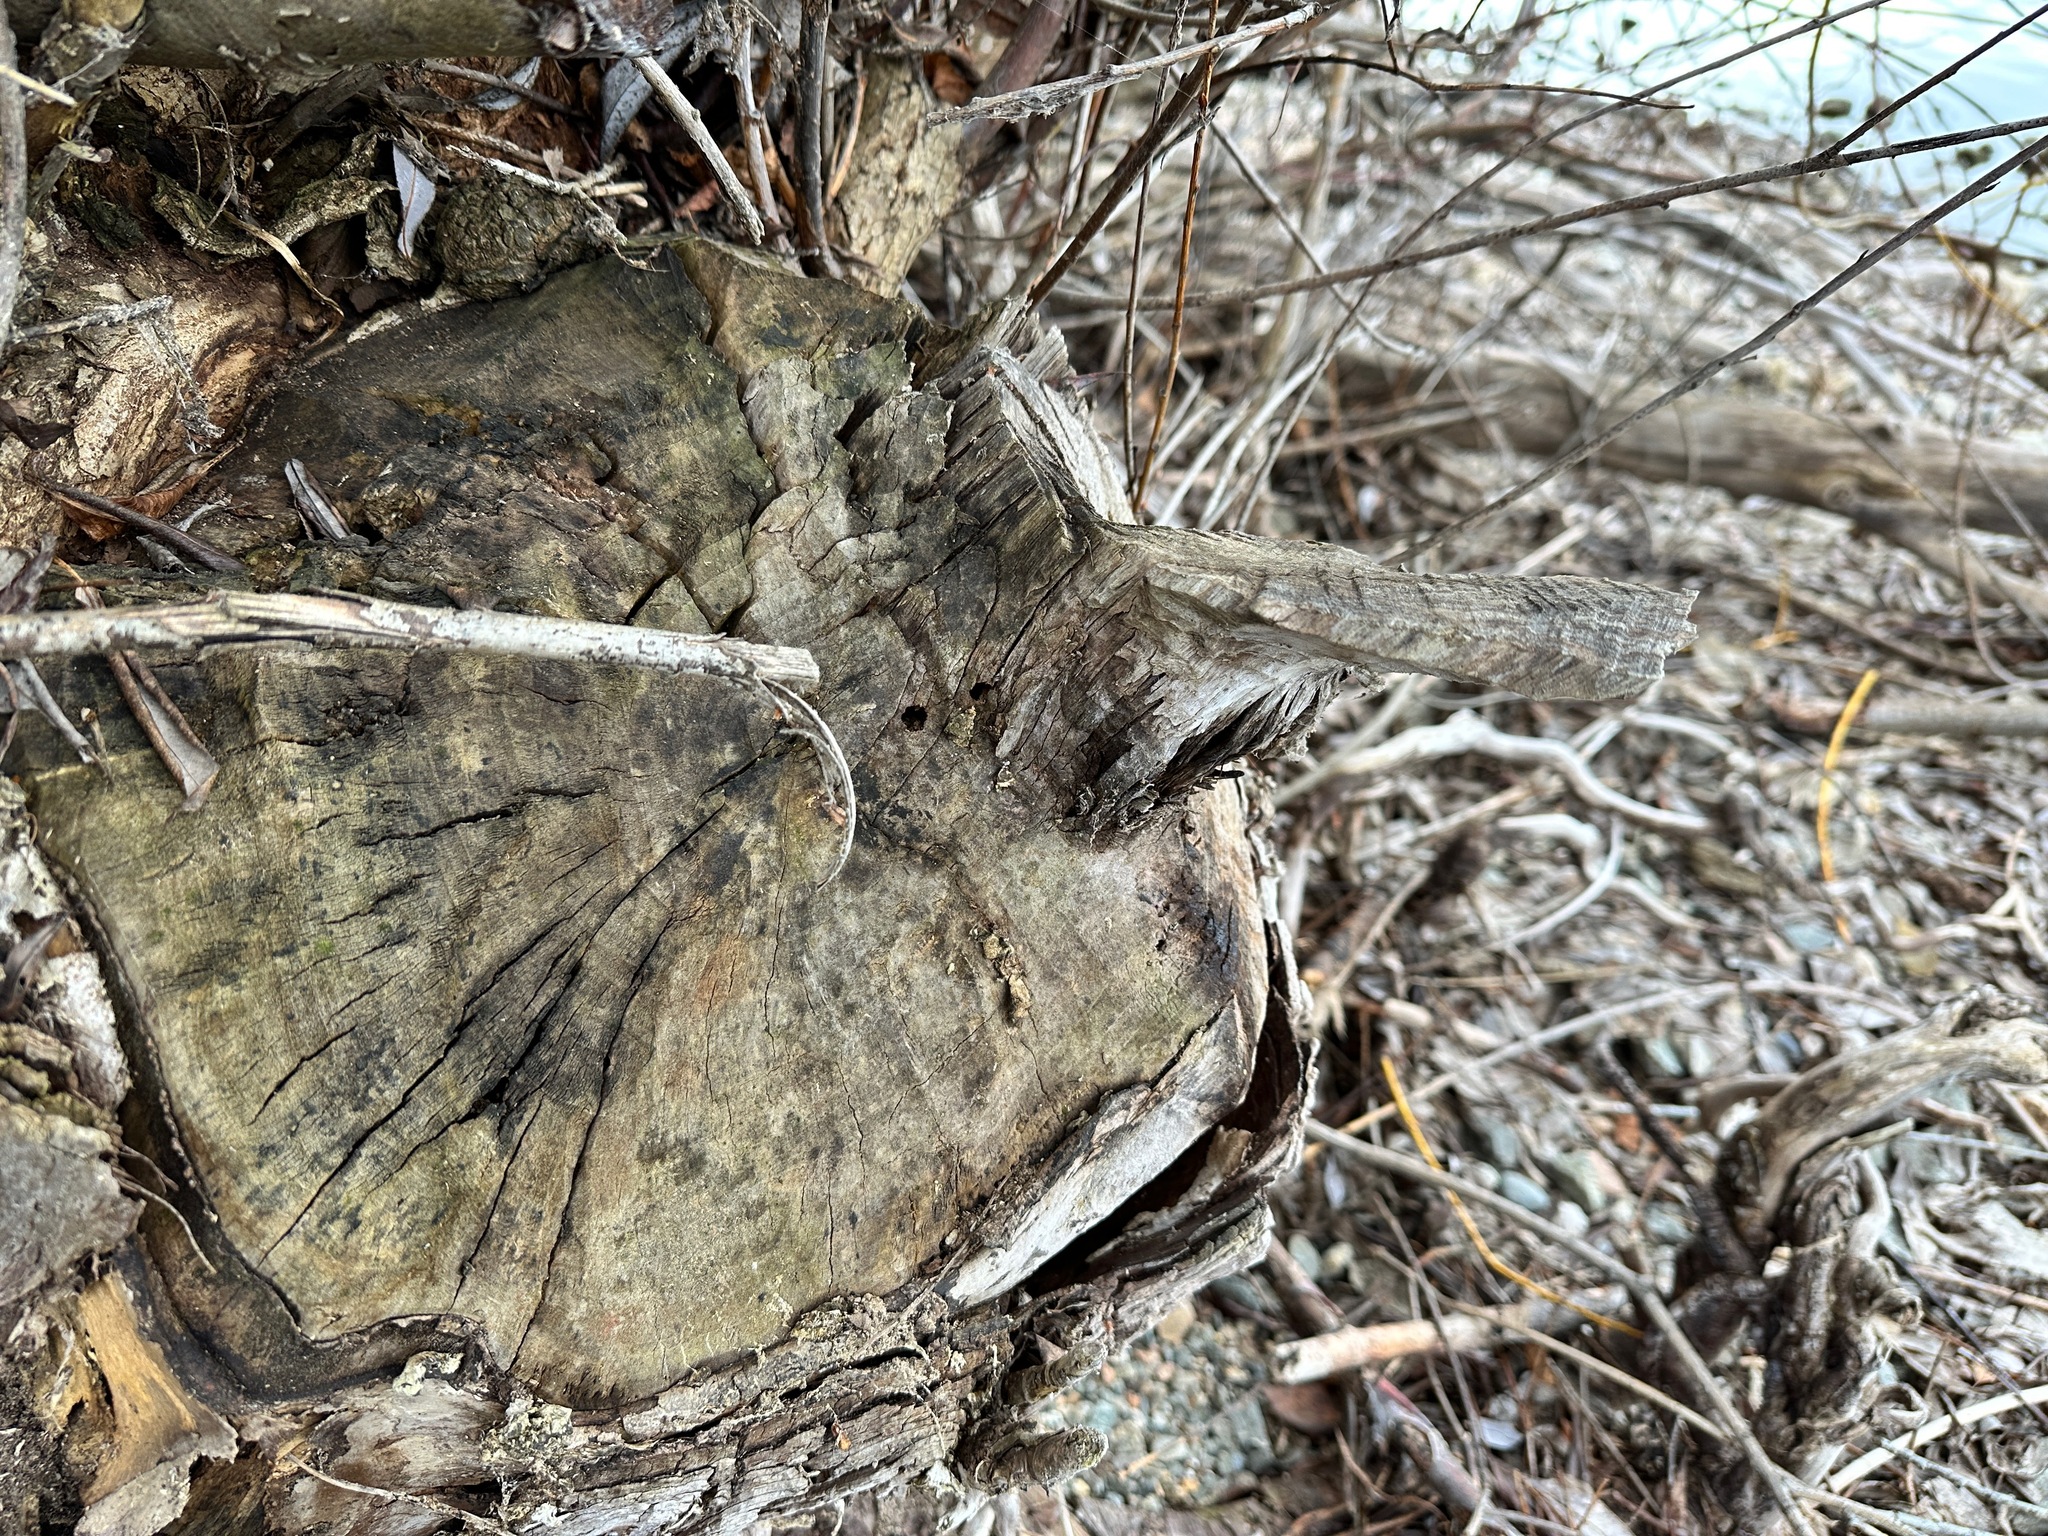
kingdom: Animalia
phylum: Chordata
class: Mammalia
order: Rodentia
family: Castoridae
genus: Castor
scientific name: Castor canadensis
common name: American beaver
